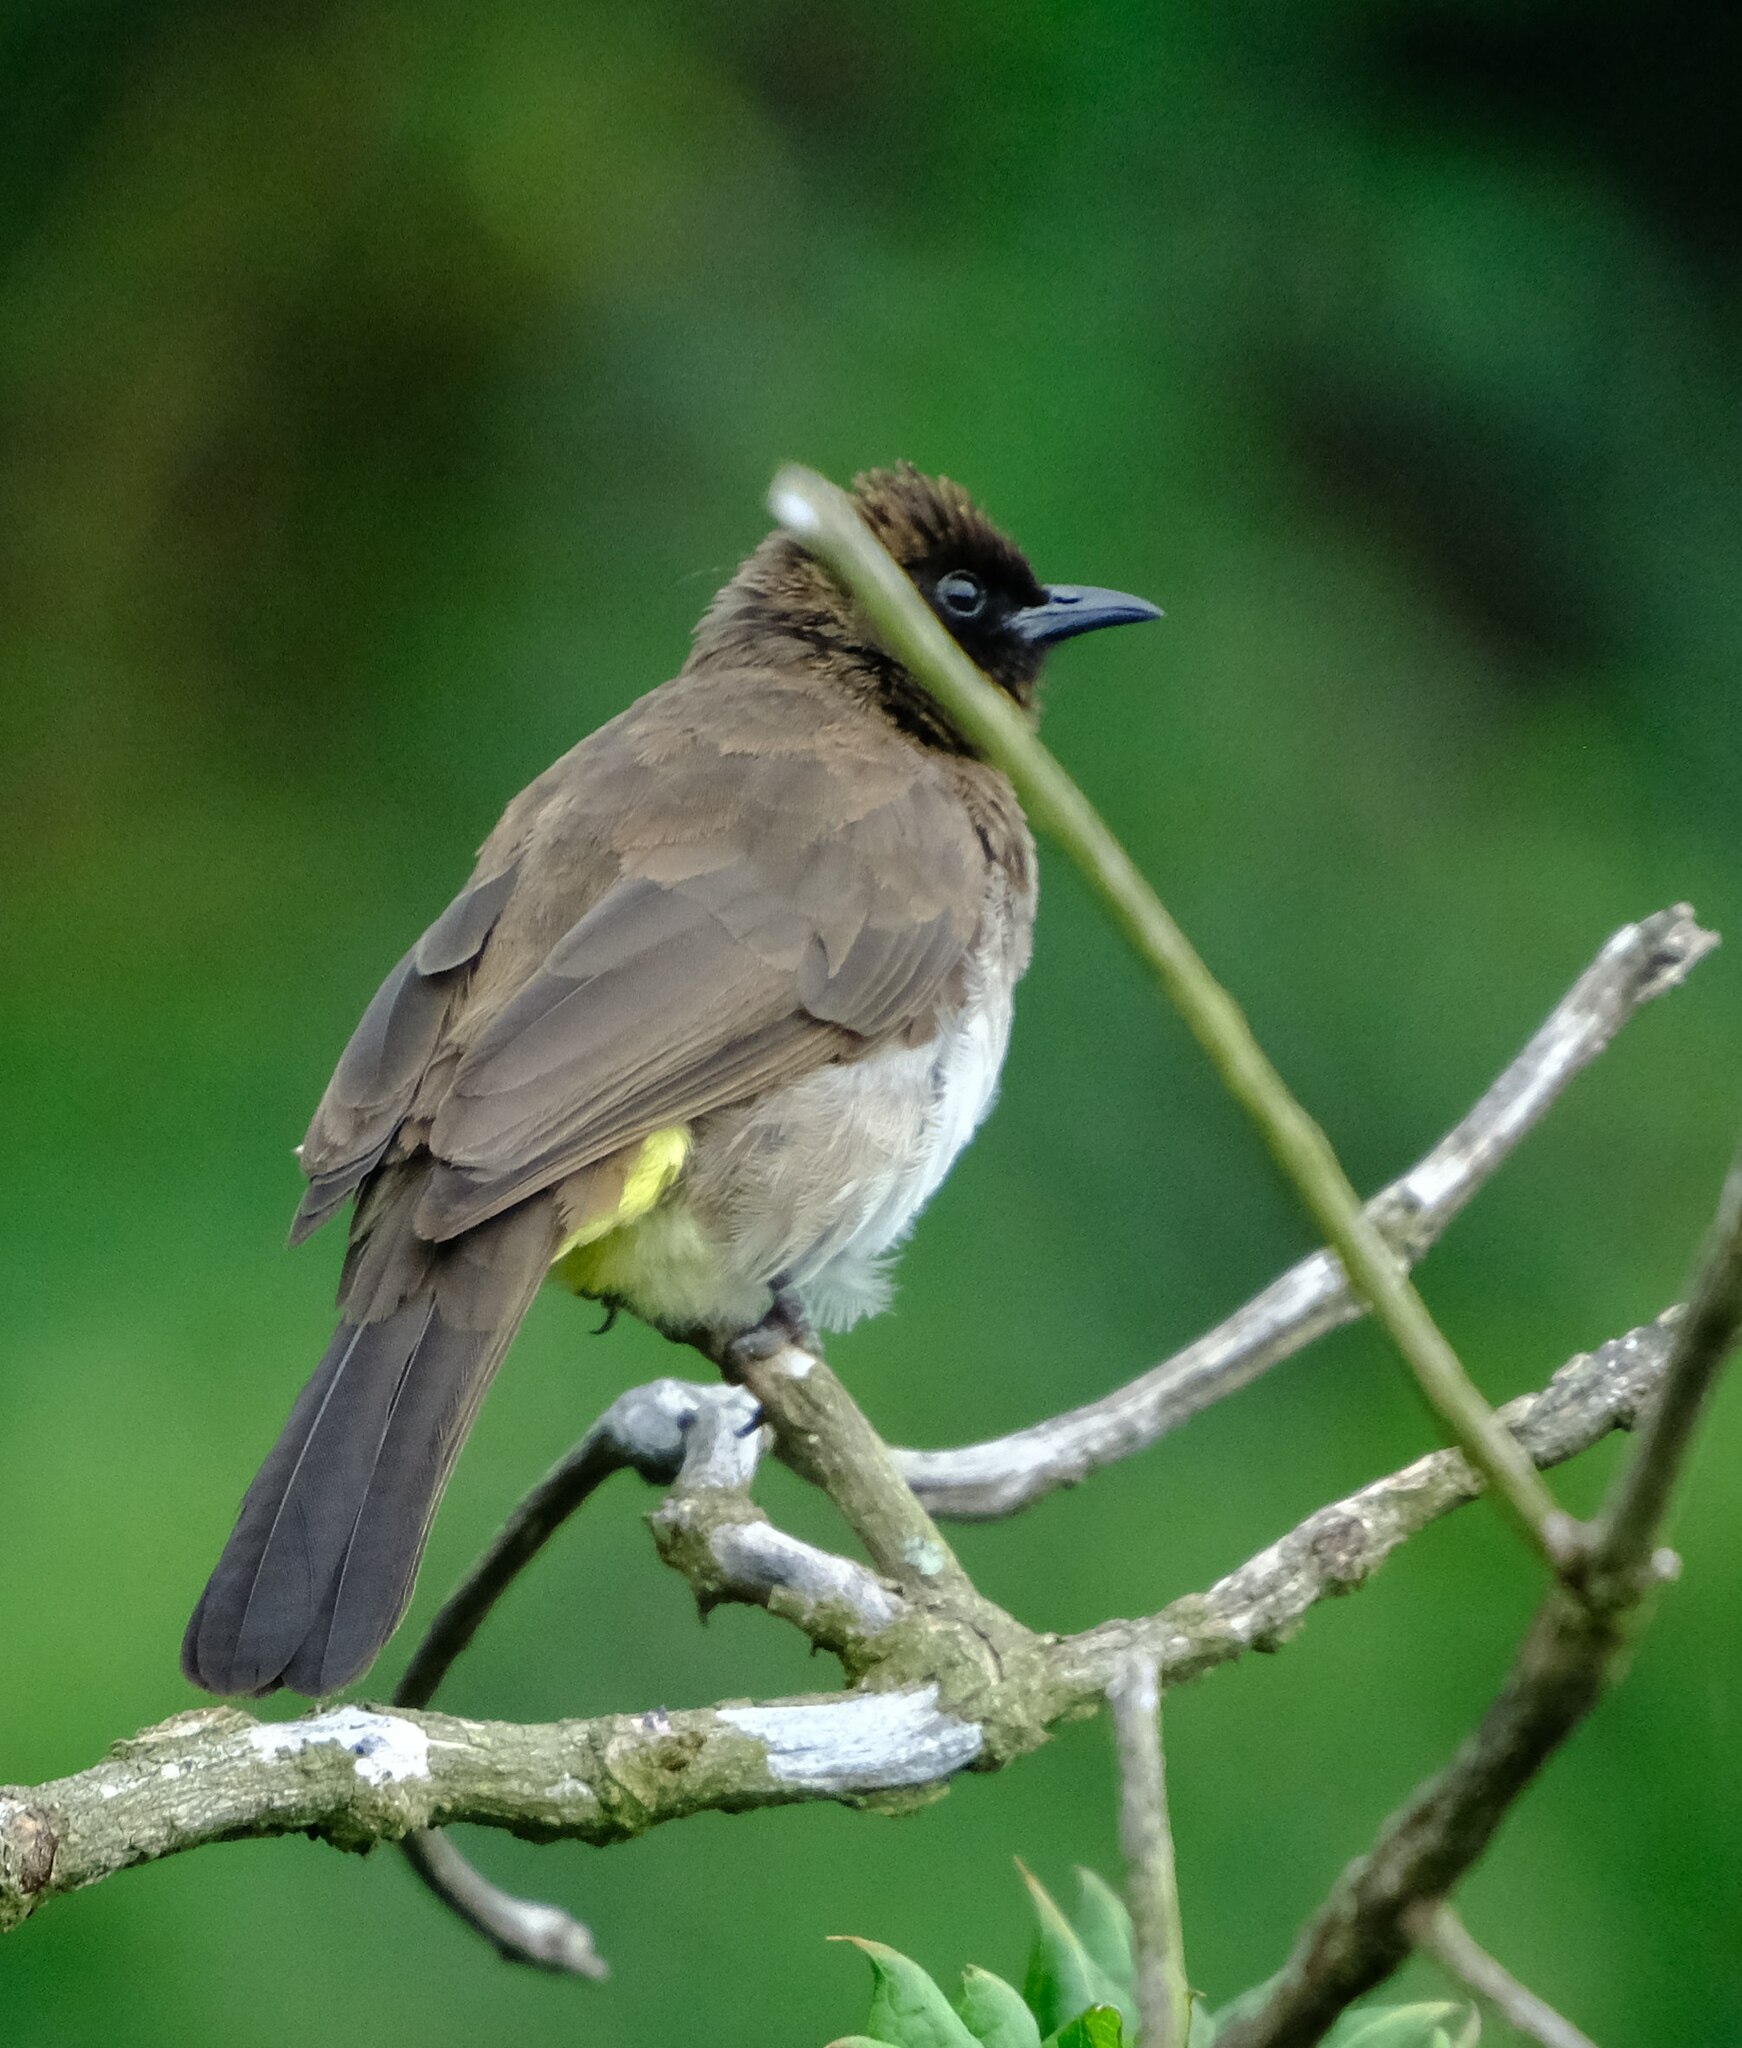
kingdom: Animalia
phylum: Chordata
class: Aves
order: Passeriformes
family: Pycnonotidae
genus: Pycnonotus
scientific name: Pycnonotus barbatus
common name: Common bulbul
